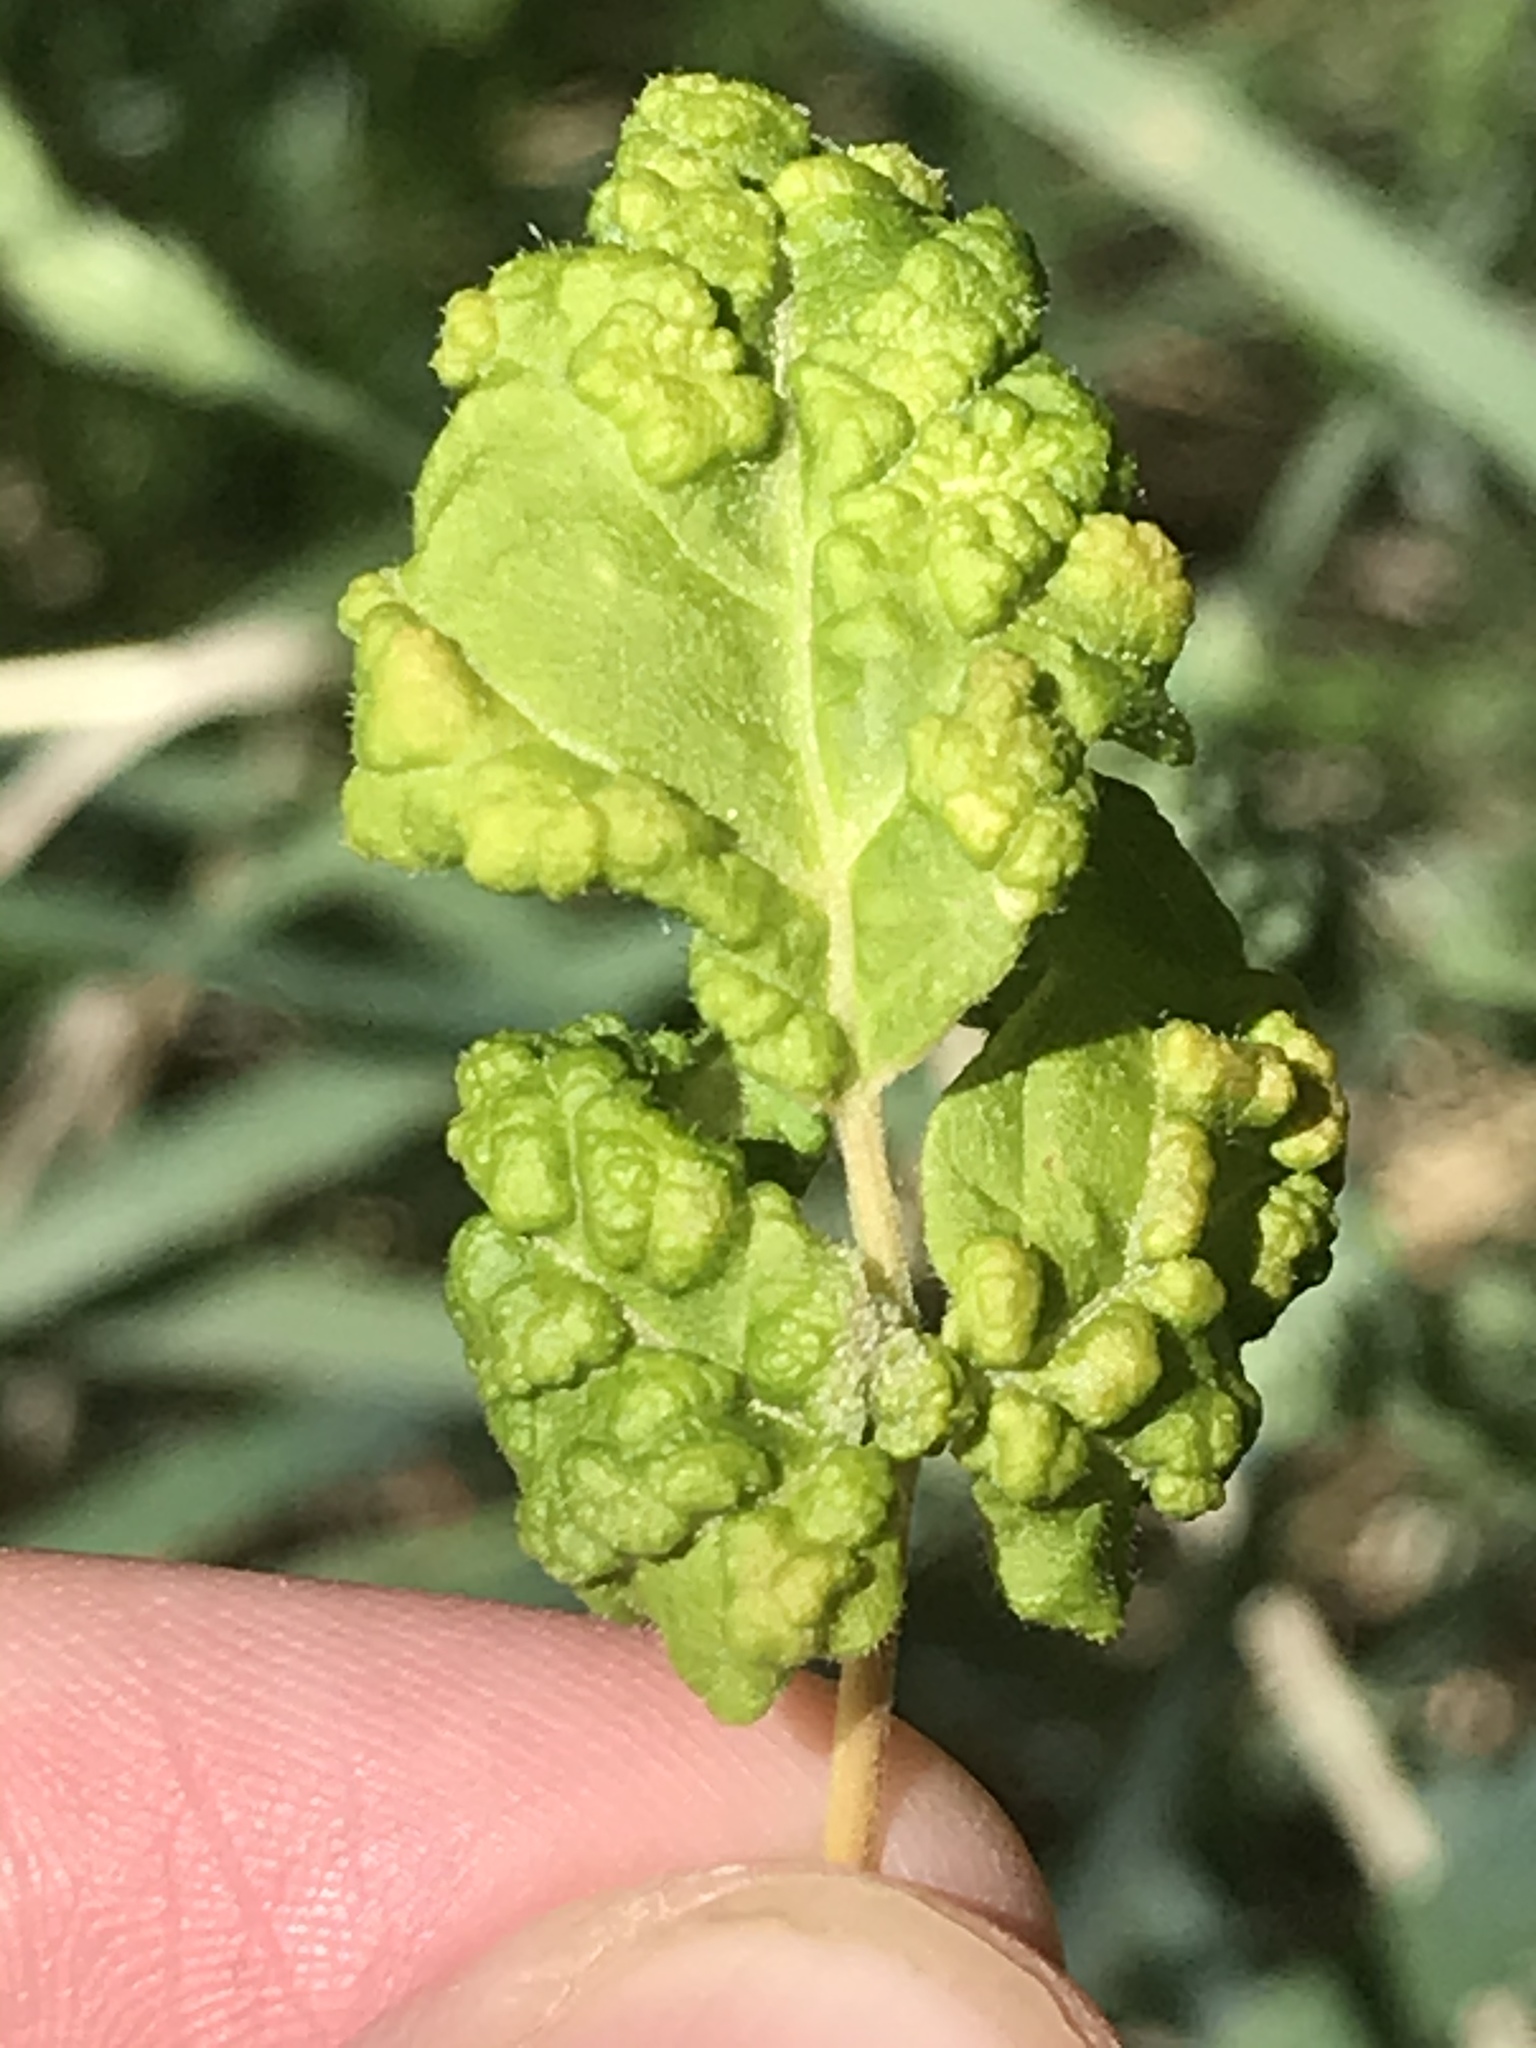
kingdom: Animalia
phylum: Arthropoda
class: Arachnida
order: Trombidiformes
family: Eriophyidae
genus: Aceria
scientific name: Aceria
